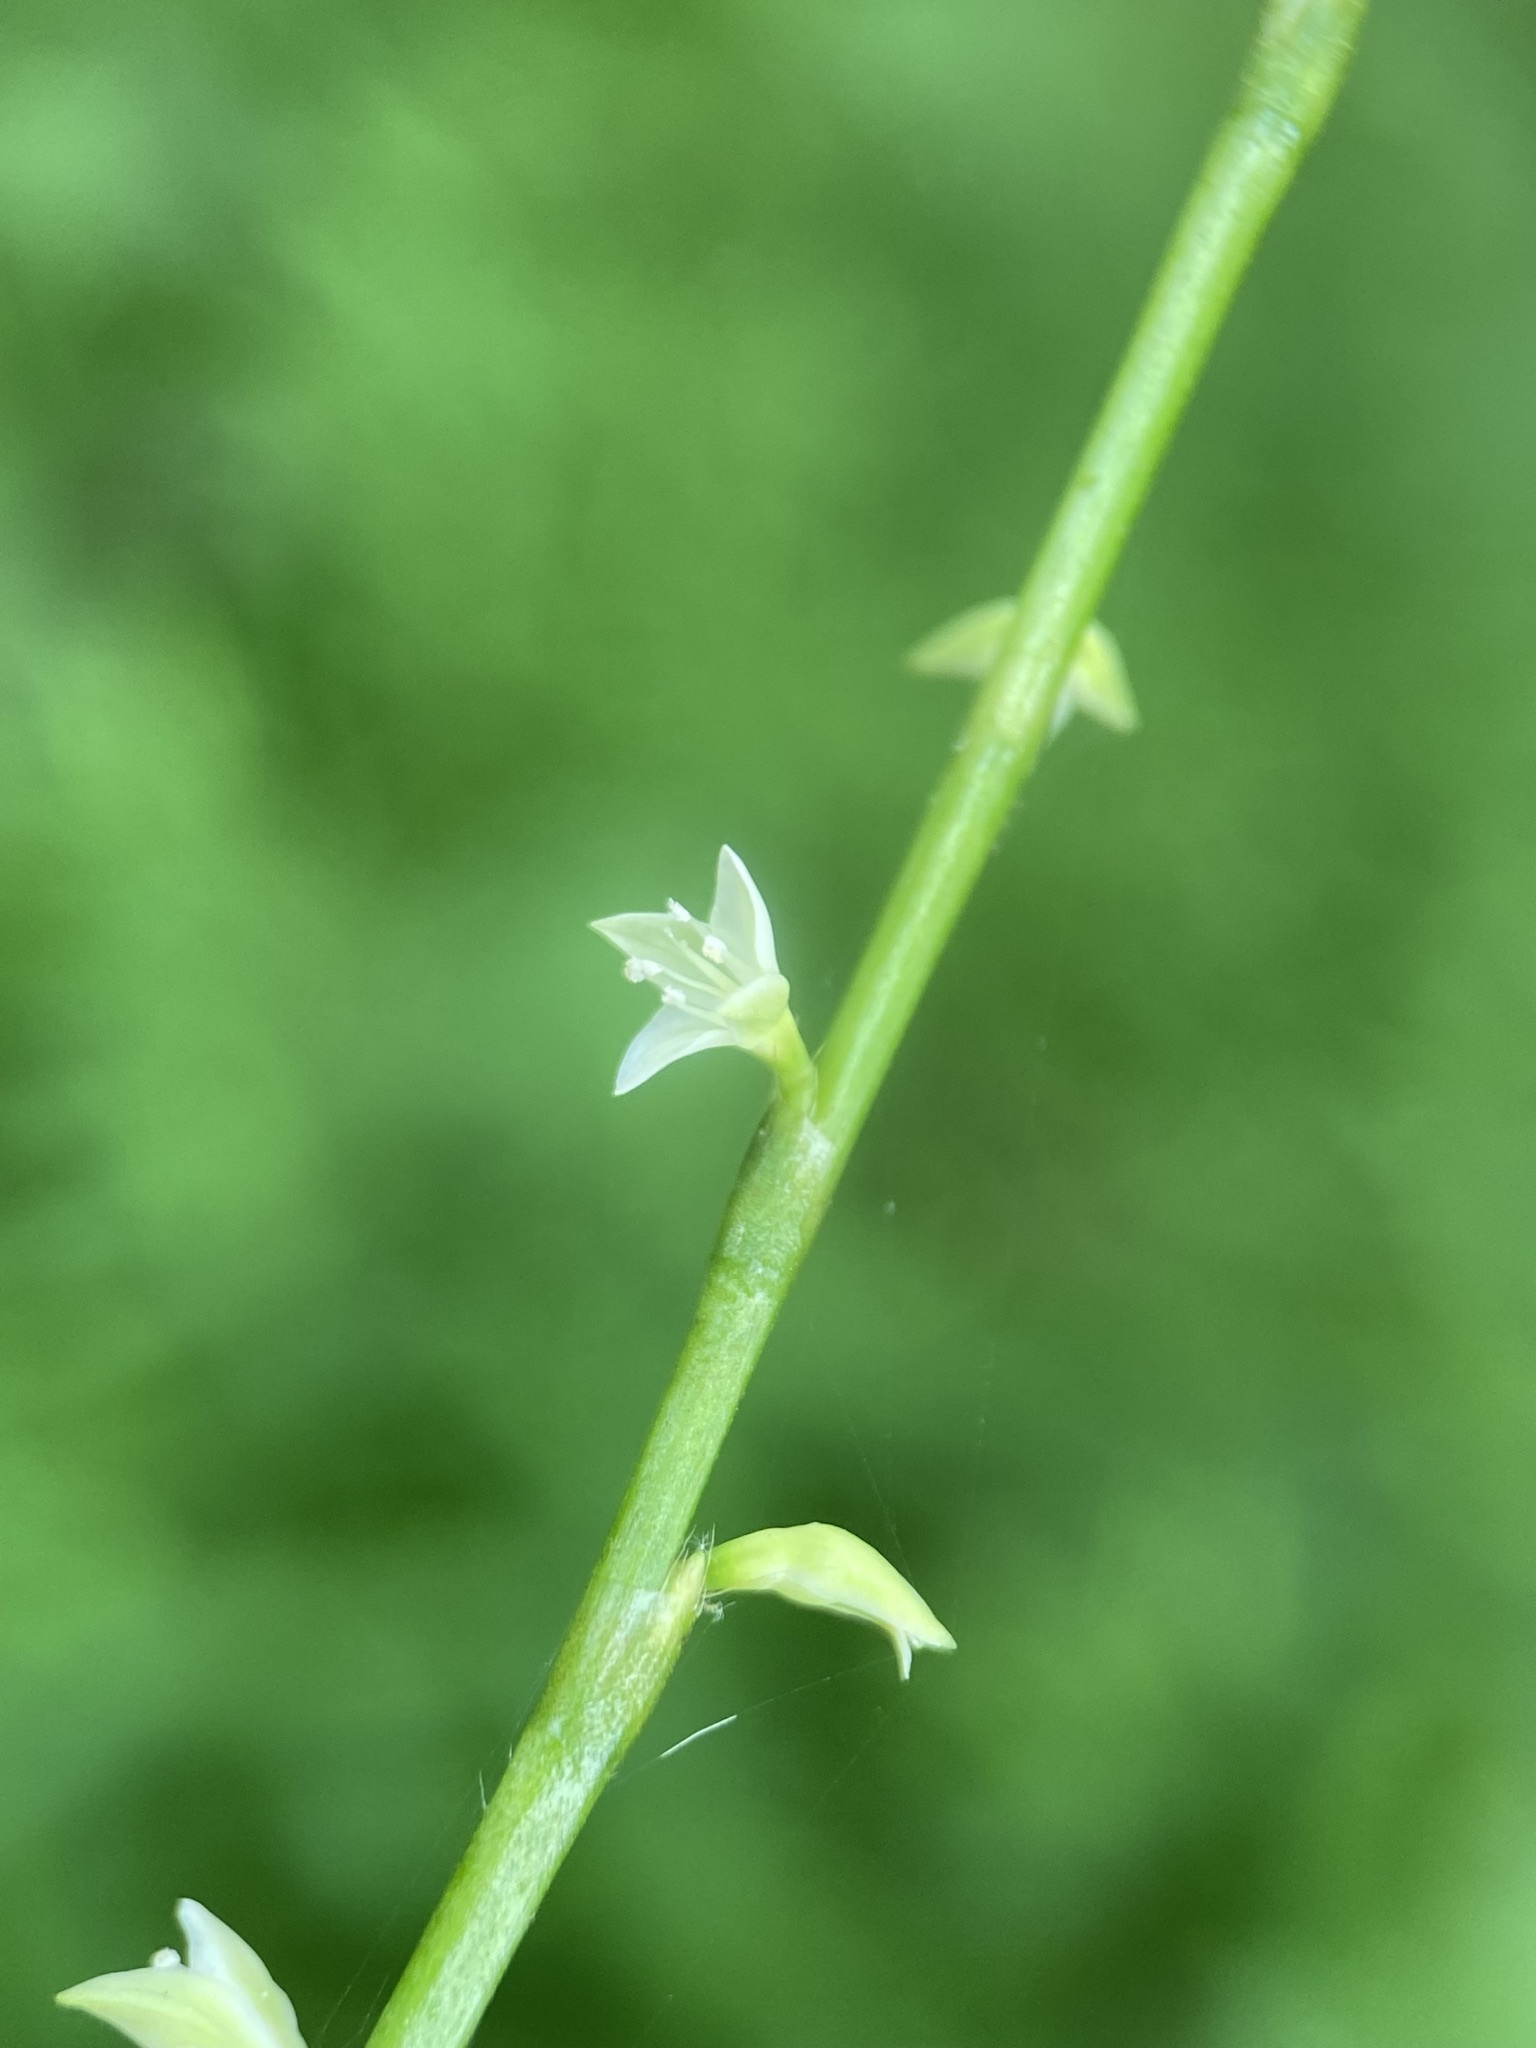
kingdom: Plantae
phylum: Tracheophyta
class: Magnoliopsida
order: Caryophyllales
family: Polygonaceae
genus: Persicaria
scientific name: Persicaria virginiana
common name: Jumpseed
